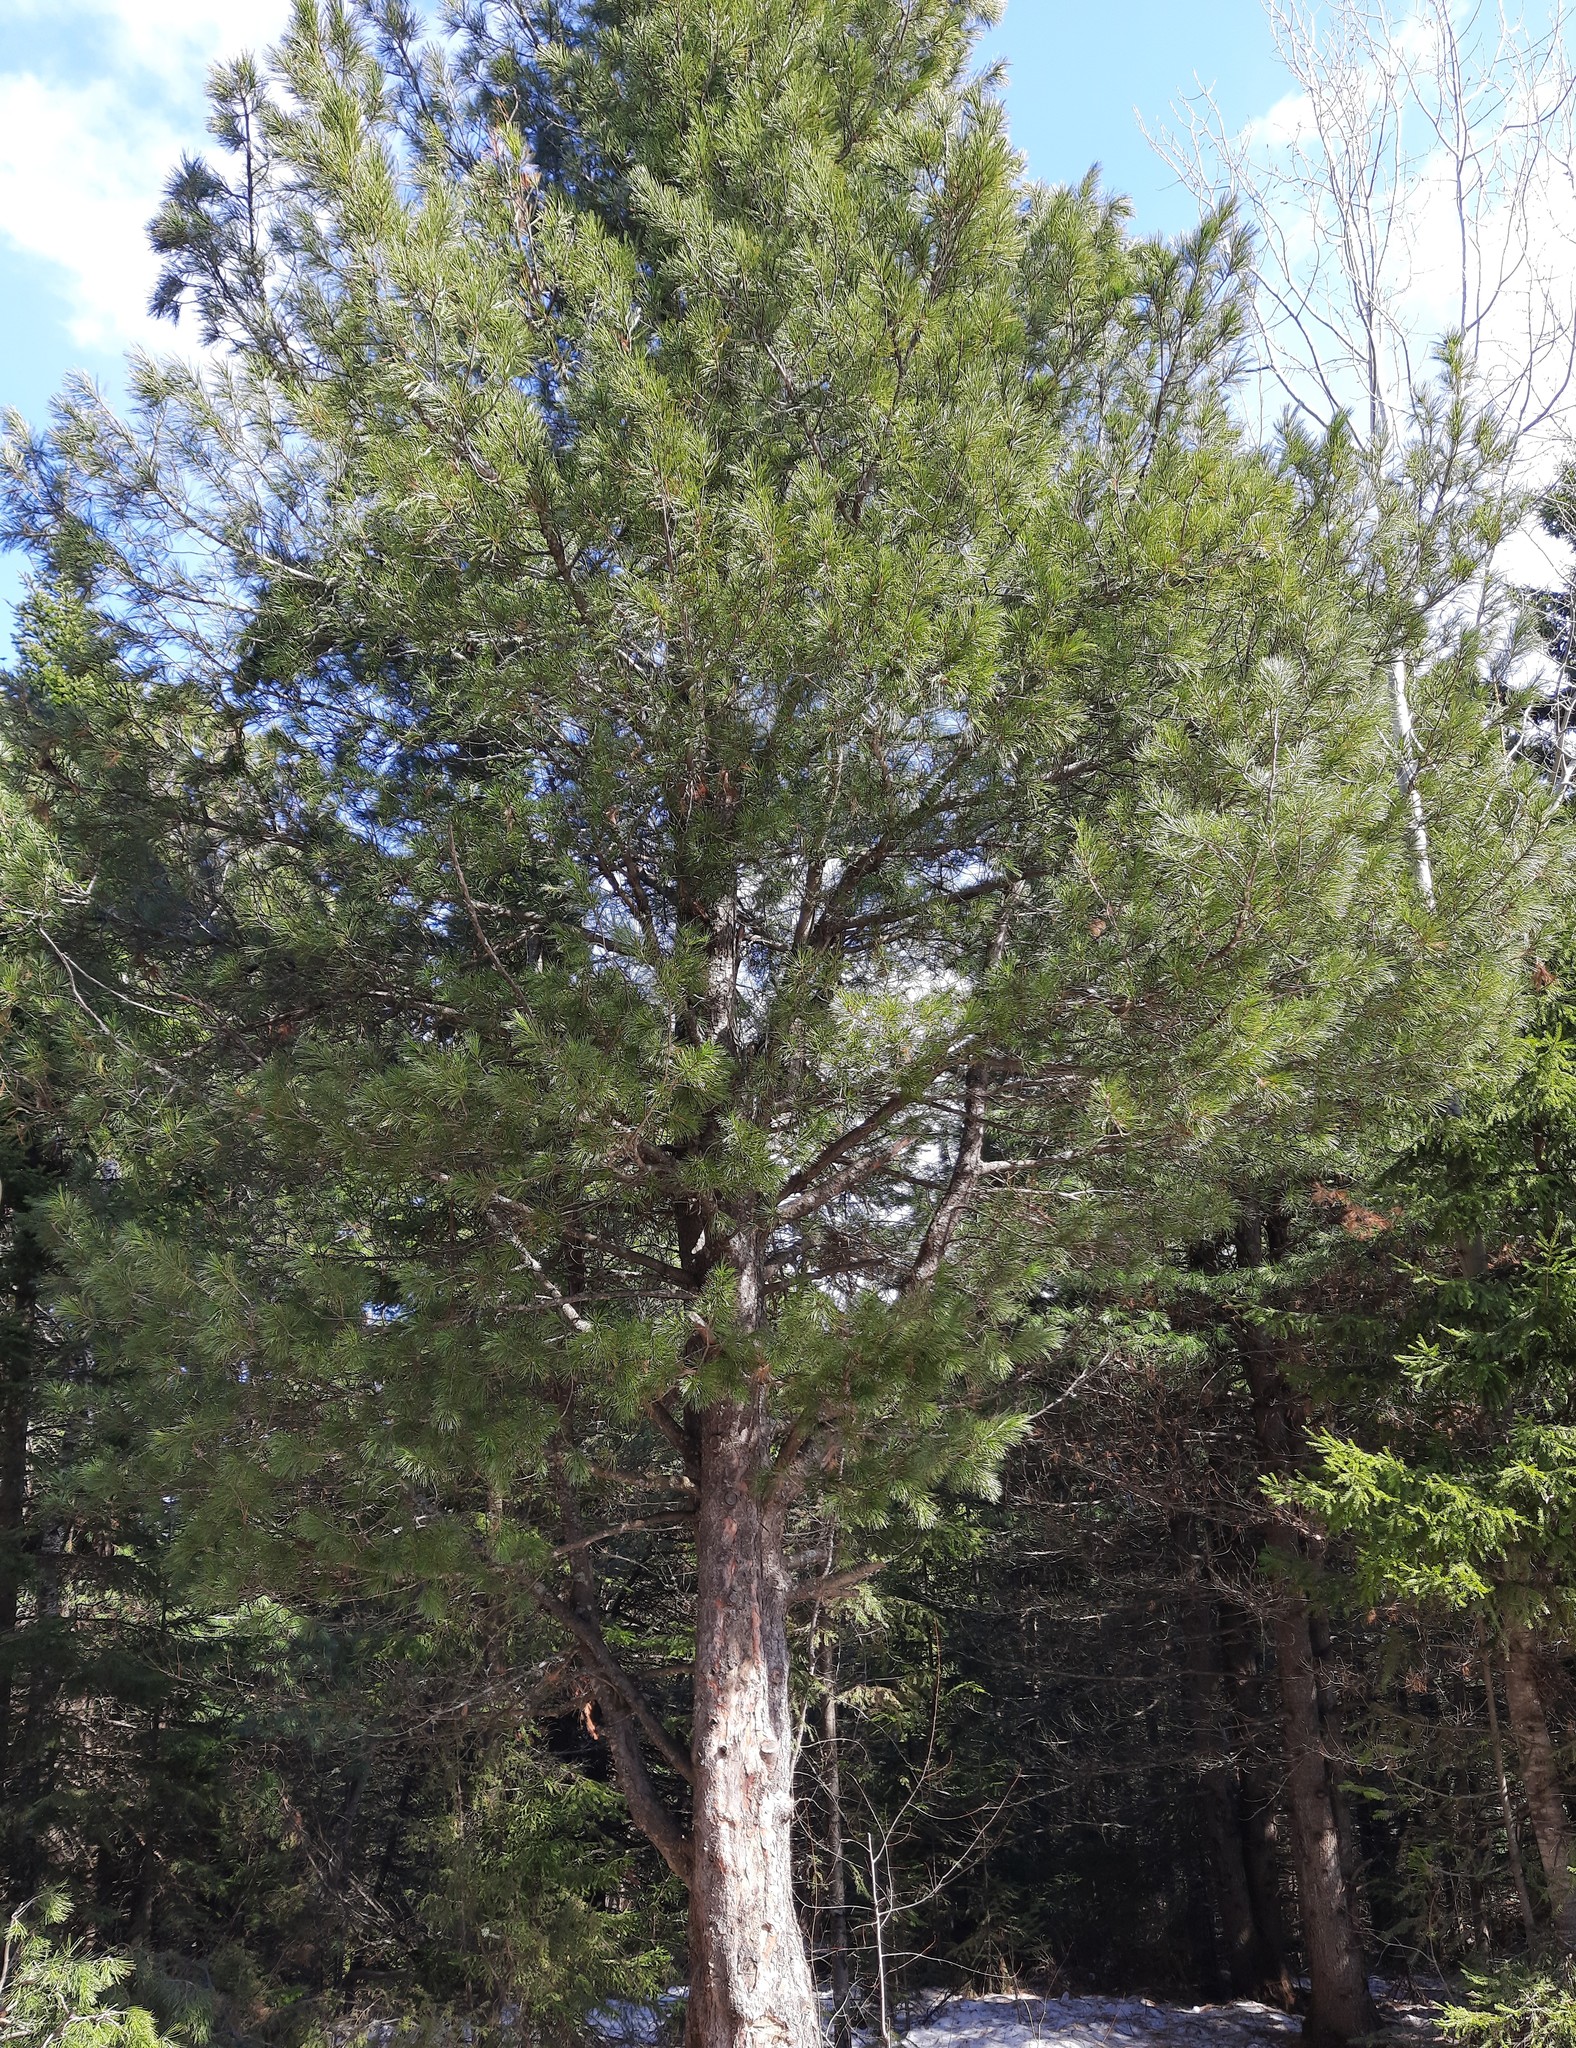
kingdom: Plantae
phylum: Tracheophyta
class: Pinopsida
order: Pinales
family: Pinaceae
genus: Pinus
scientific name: Pinus sibirica
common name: Siberian pine
